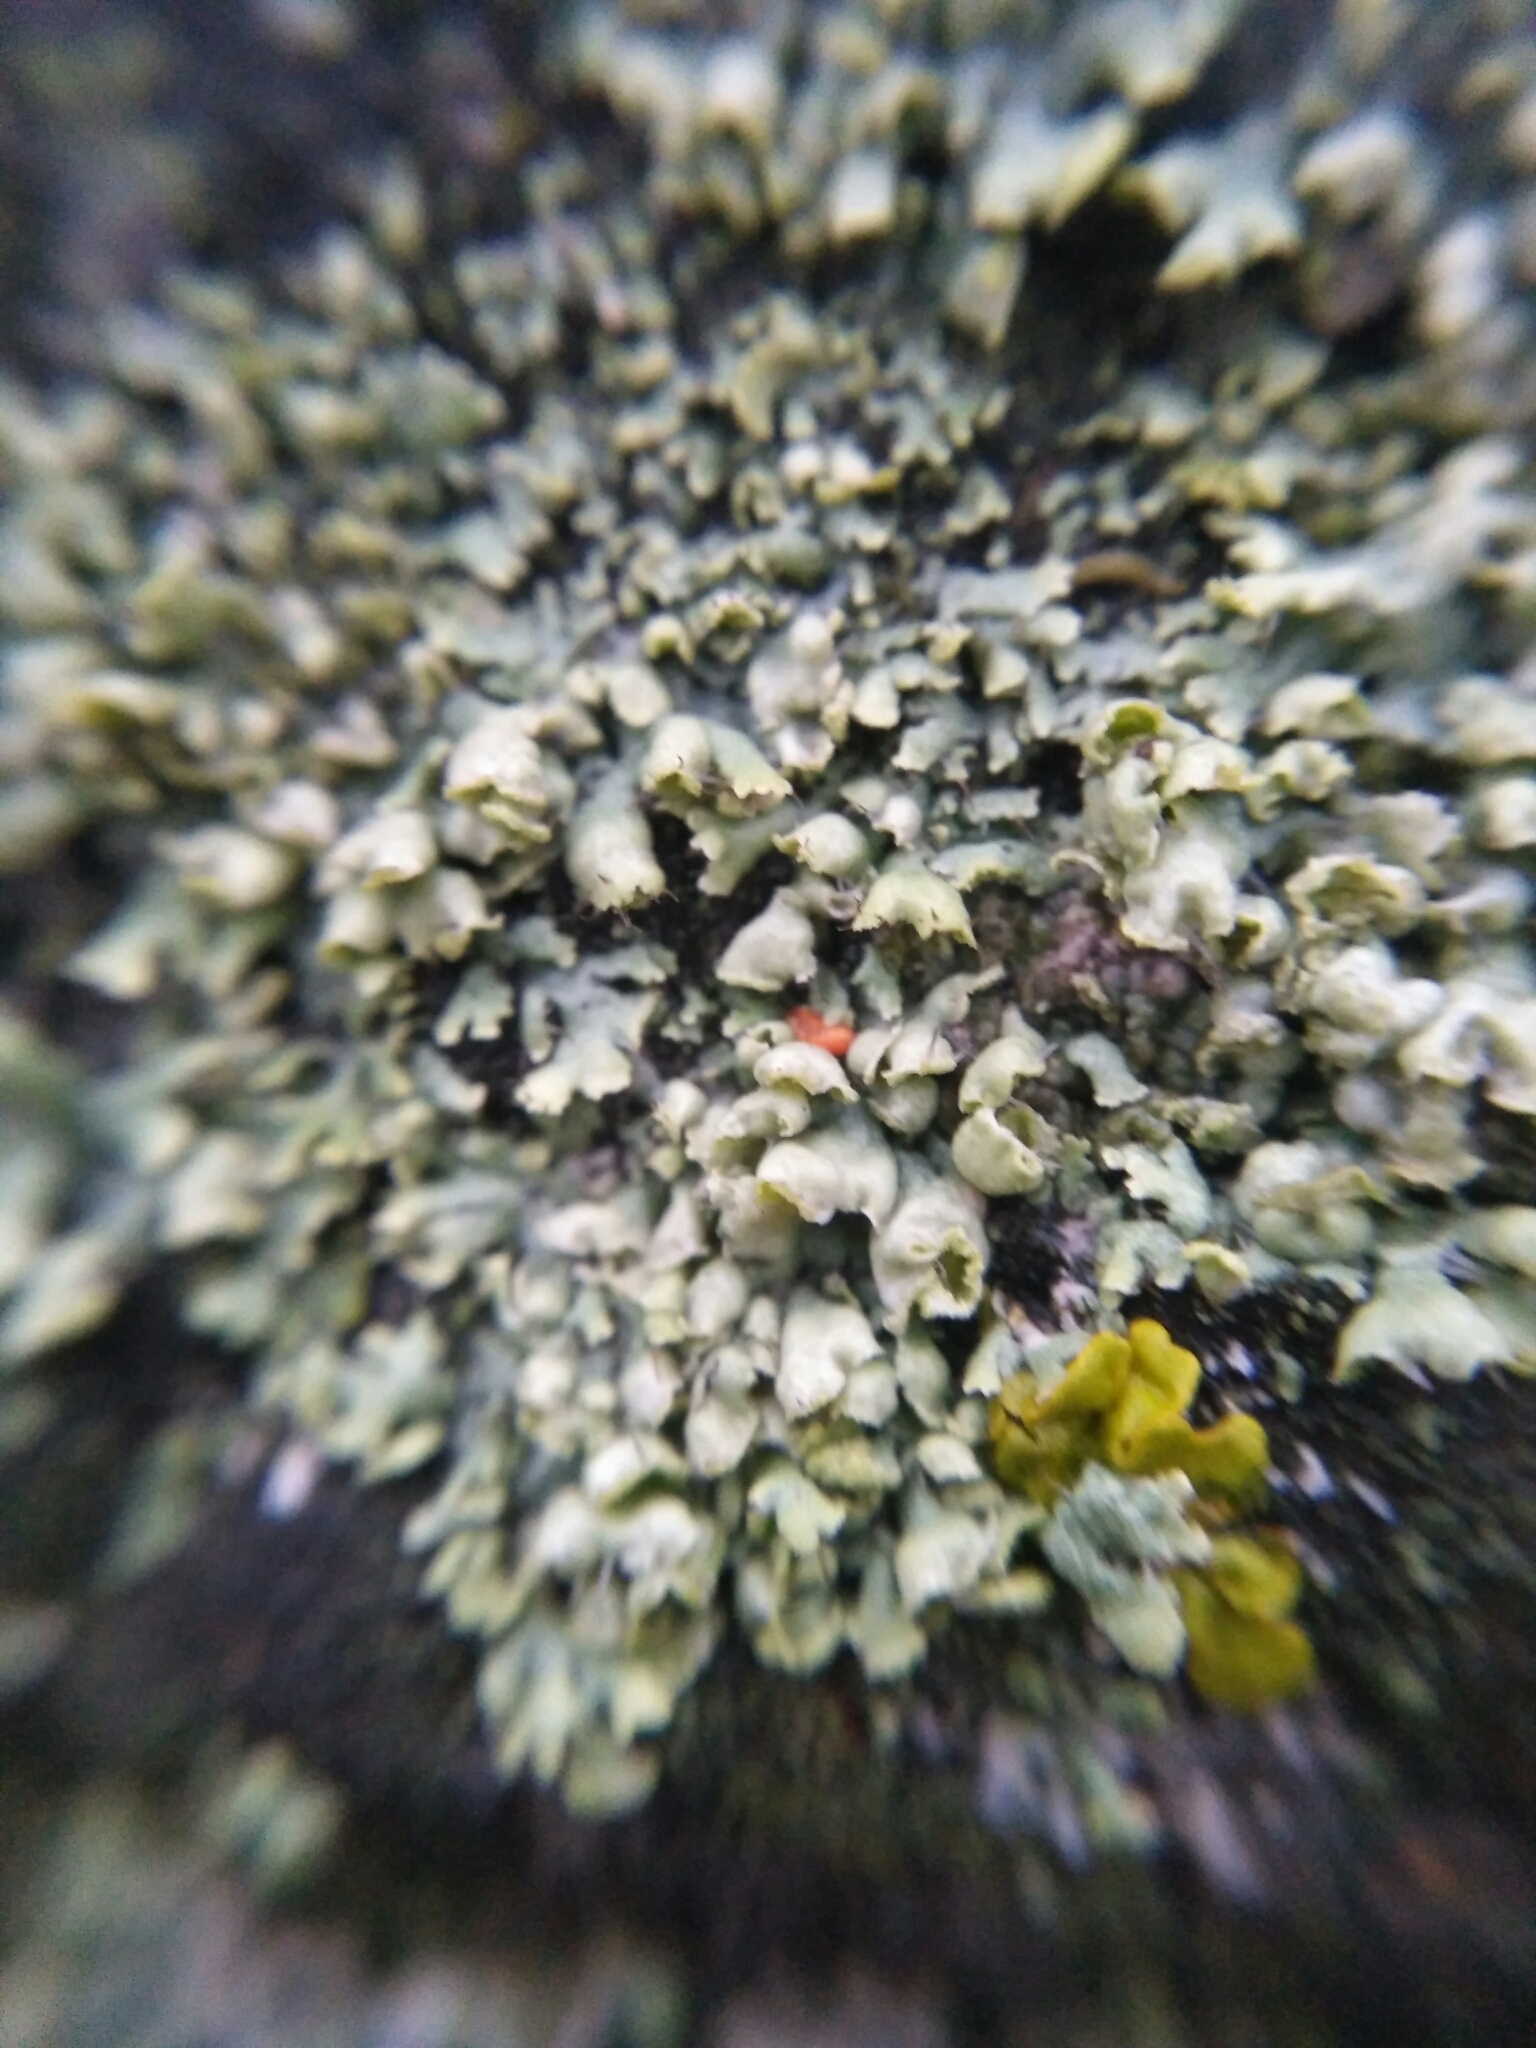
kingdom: Fungi
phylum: Ascomycota
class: Lecanoromycetes
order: Caliciales
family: Physciaceae
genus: Physcia
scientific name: Physcia adscendens
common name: Hooded rosette lichen
